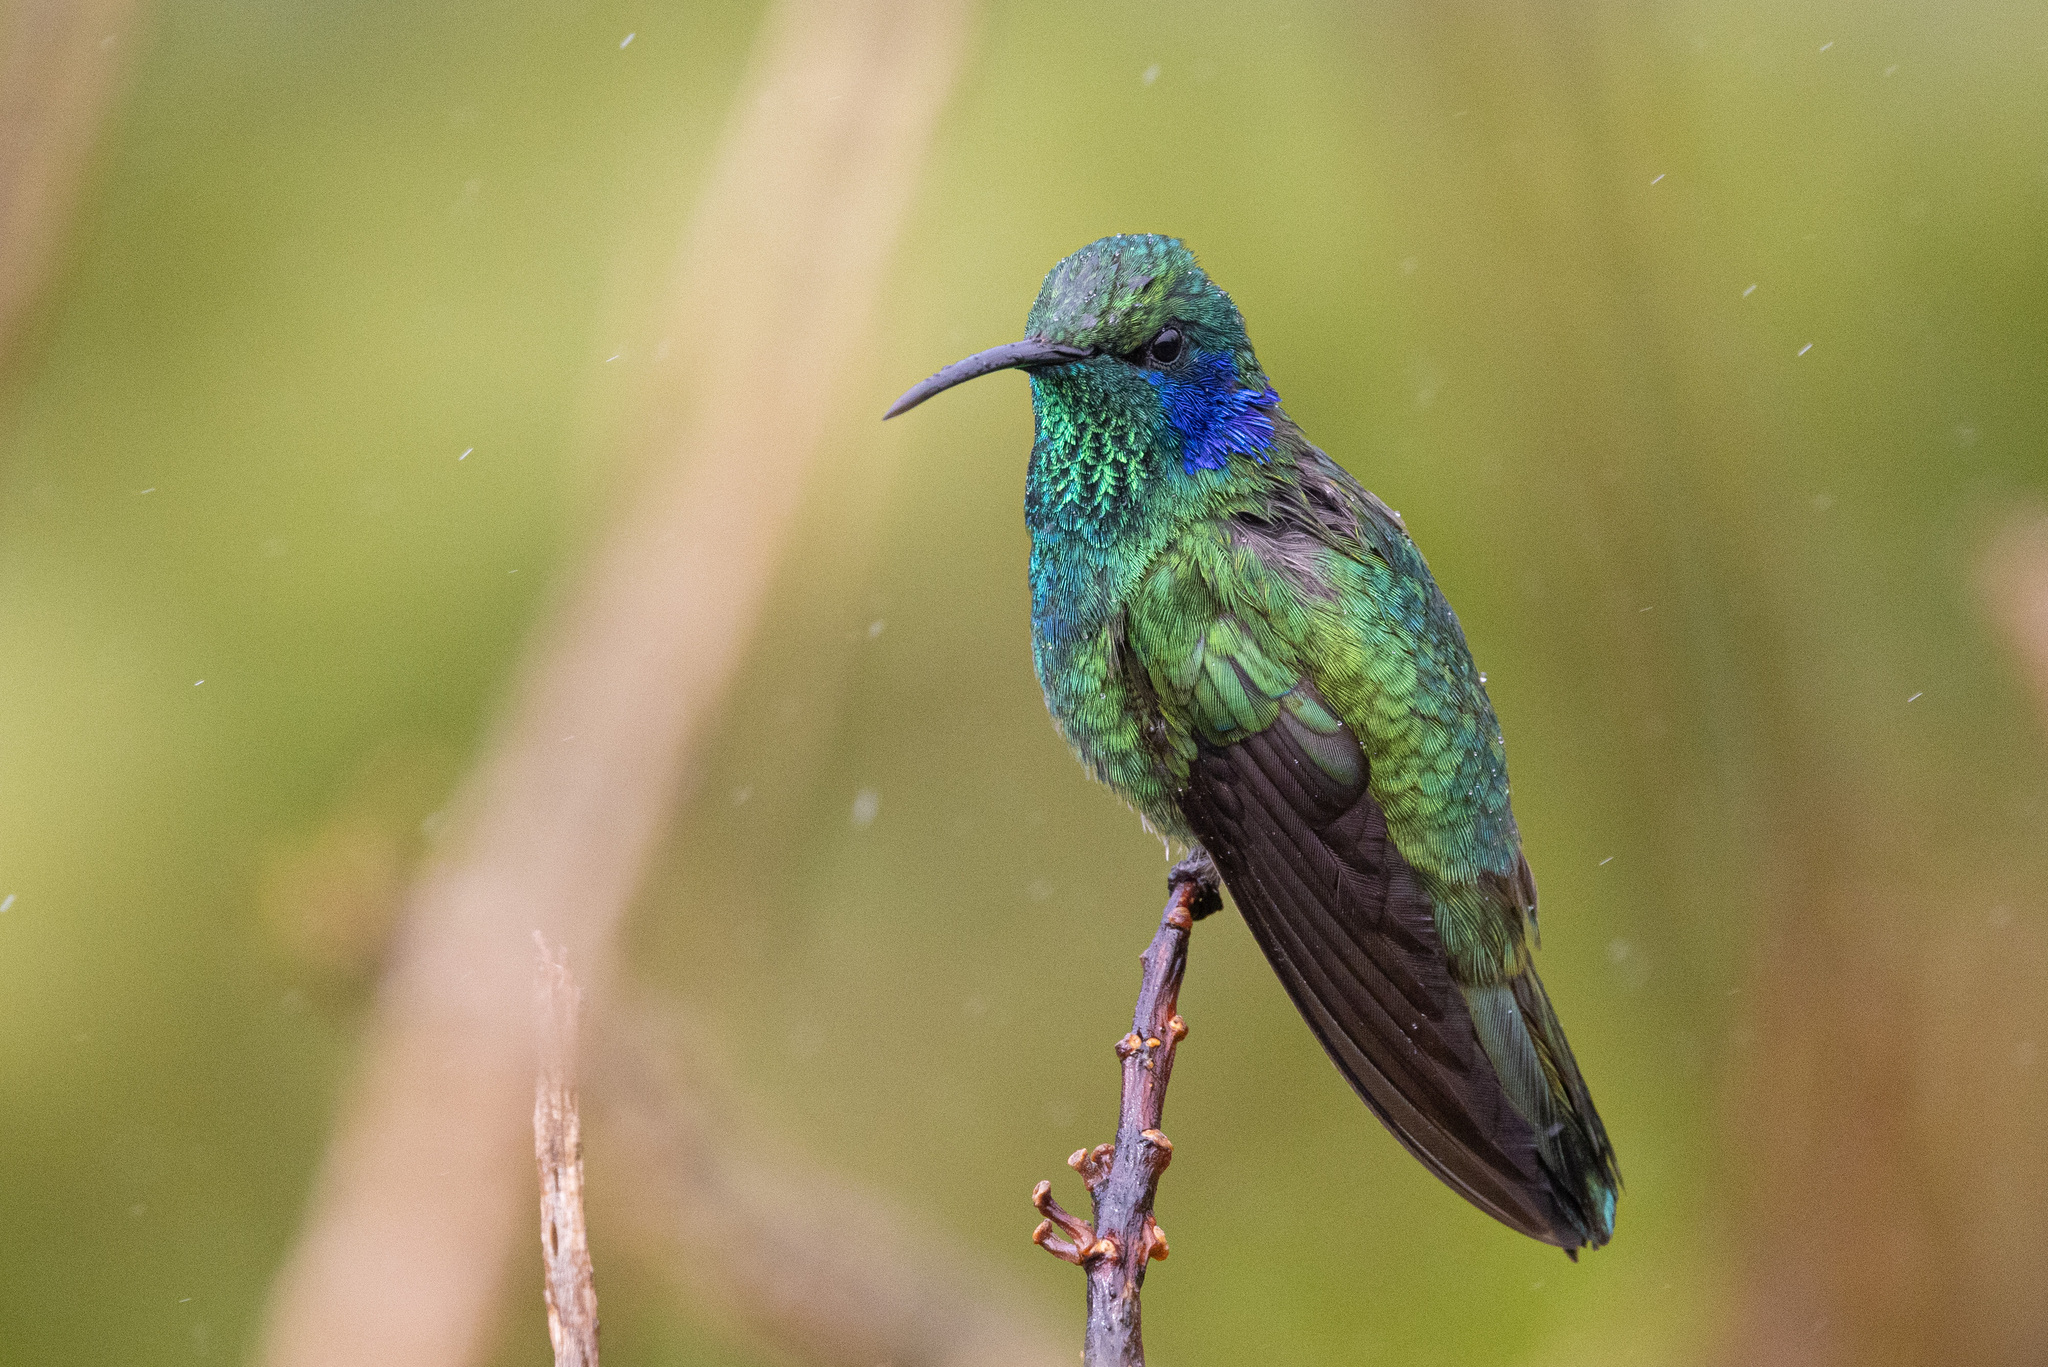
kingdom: Animalia
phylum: Chordata
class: Aves
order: Apodiformes
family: Trochilidae
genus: Colibri
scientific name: Colibri cyanotus
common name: Lesser violetear
